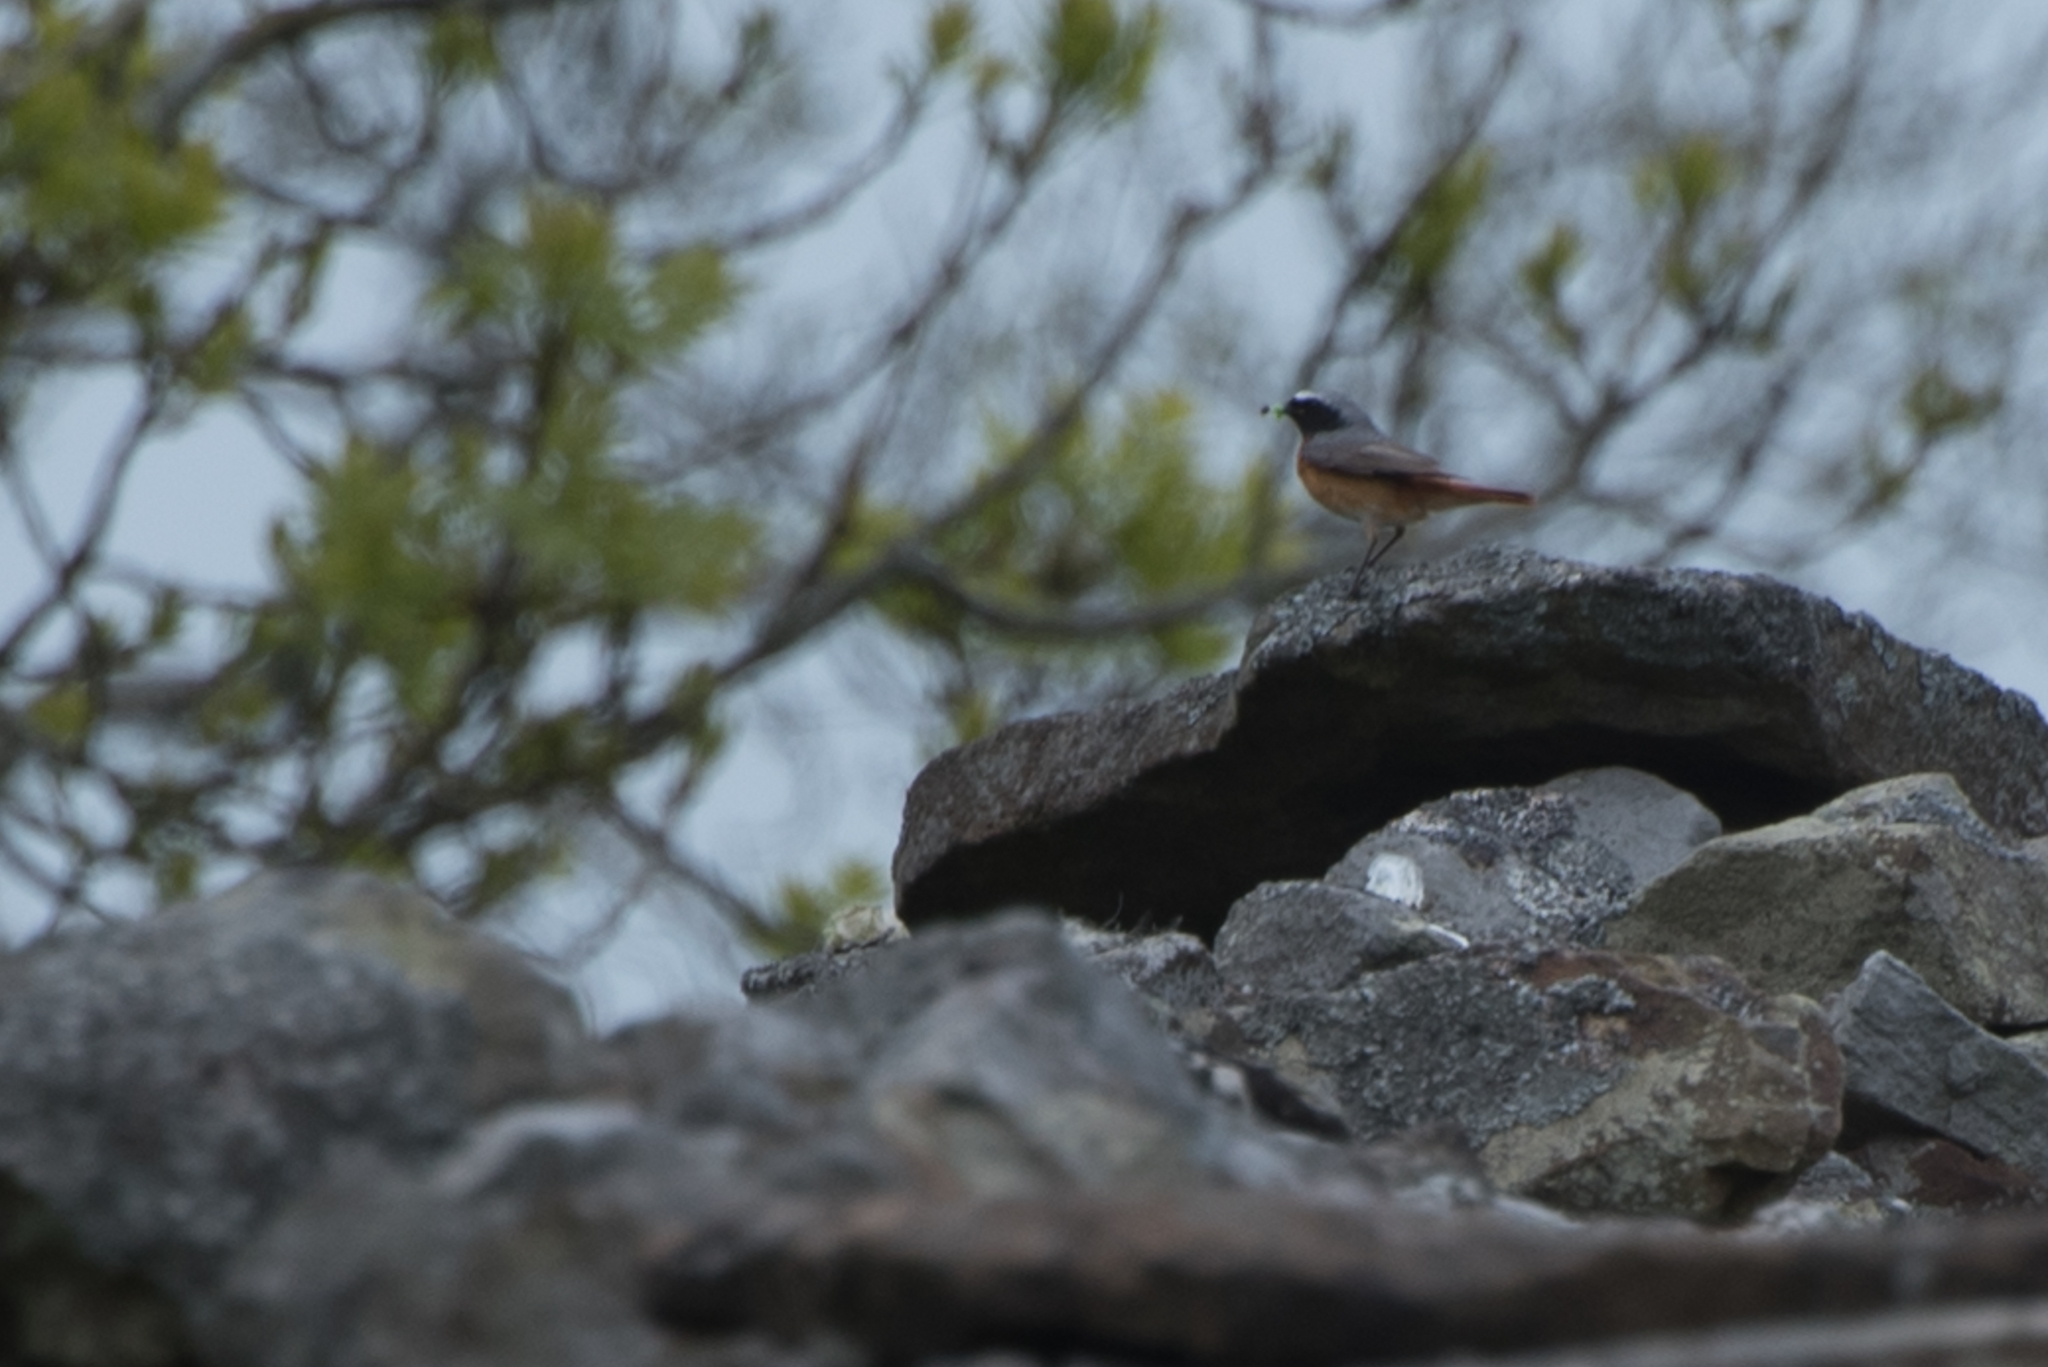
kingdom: Animalia
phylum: Chordata
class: Aves
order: Passeriformes
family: Muscicapidae
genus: Phoenicurus
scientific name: Phoenicurus phoenicurus
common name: Common redstart
